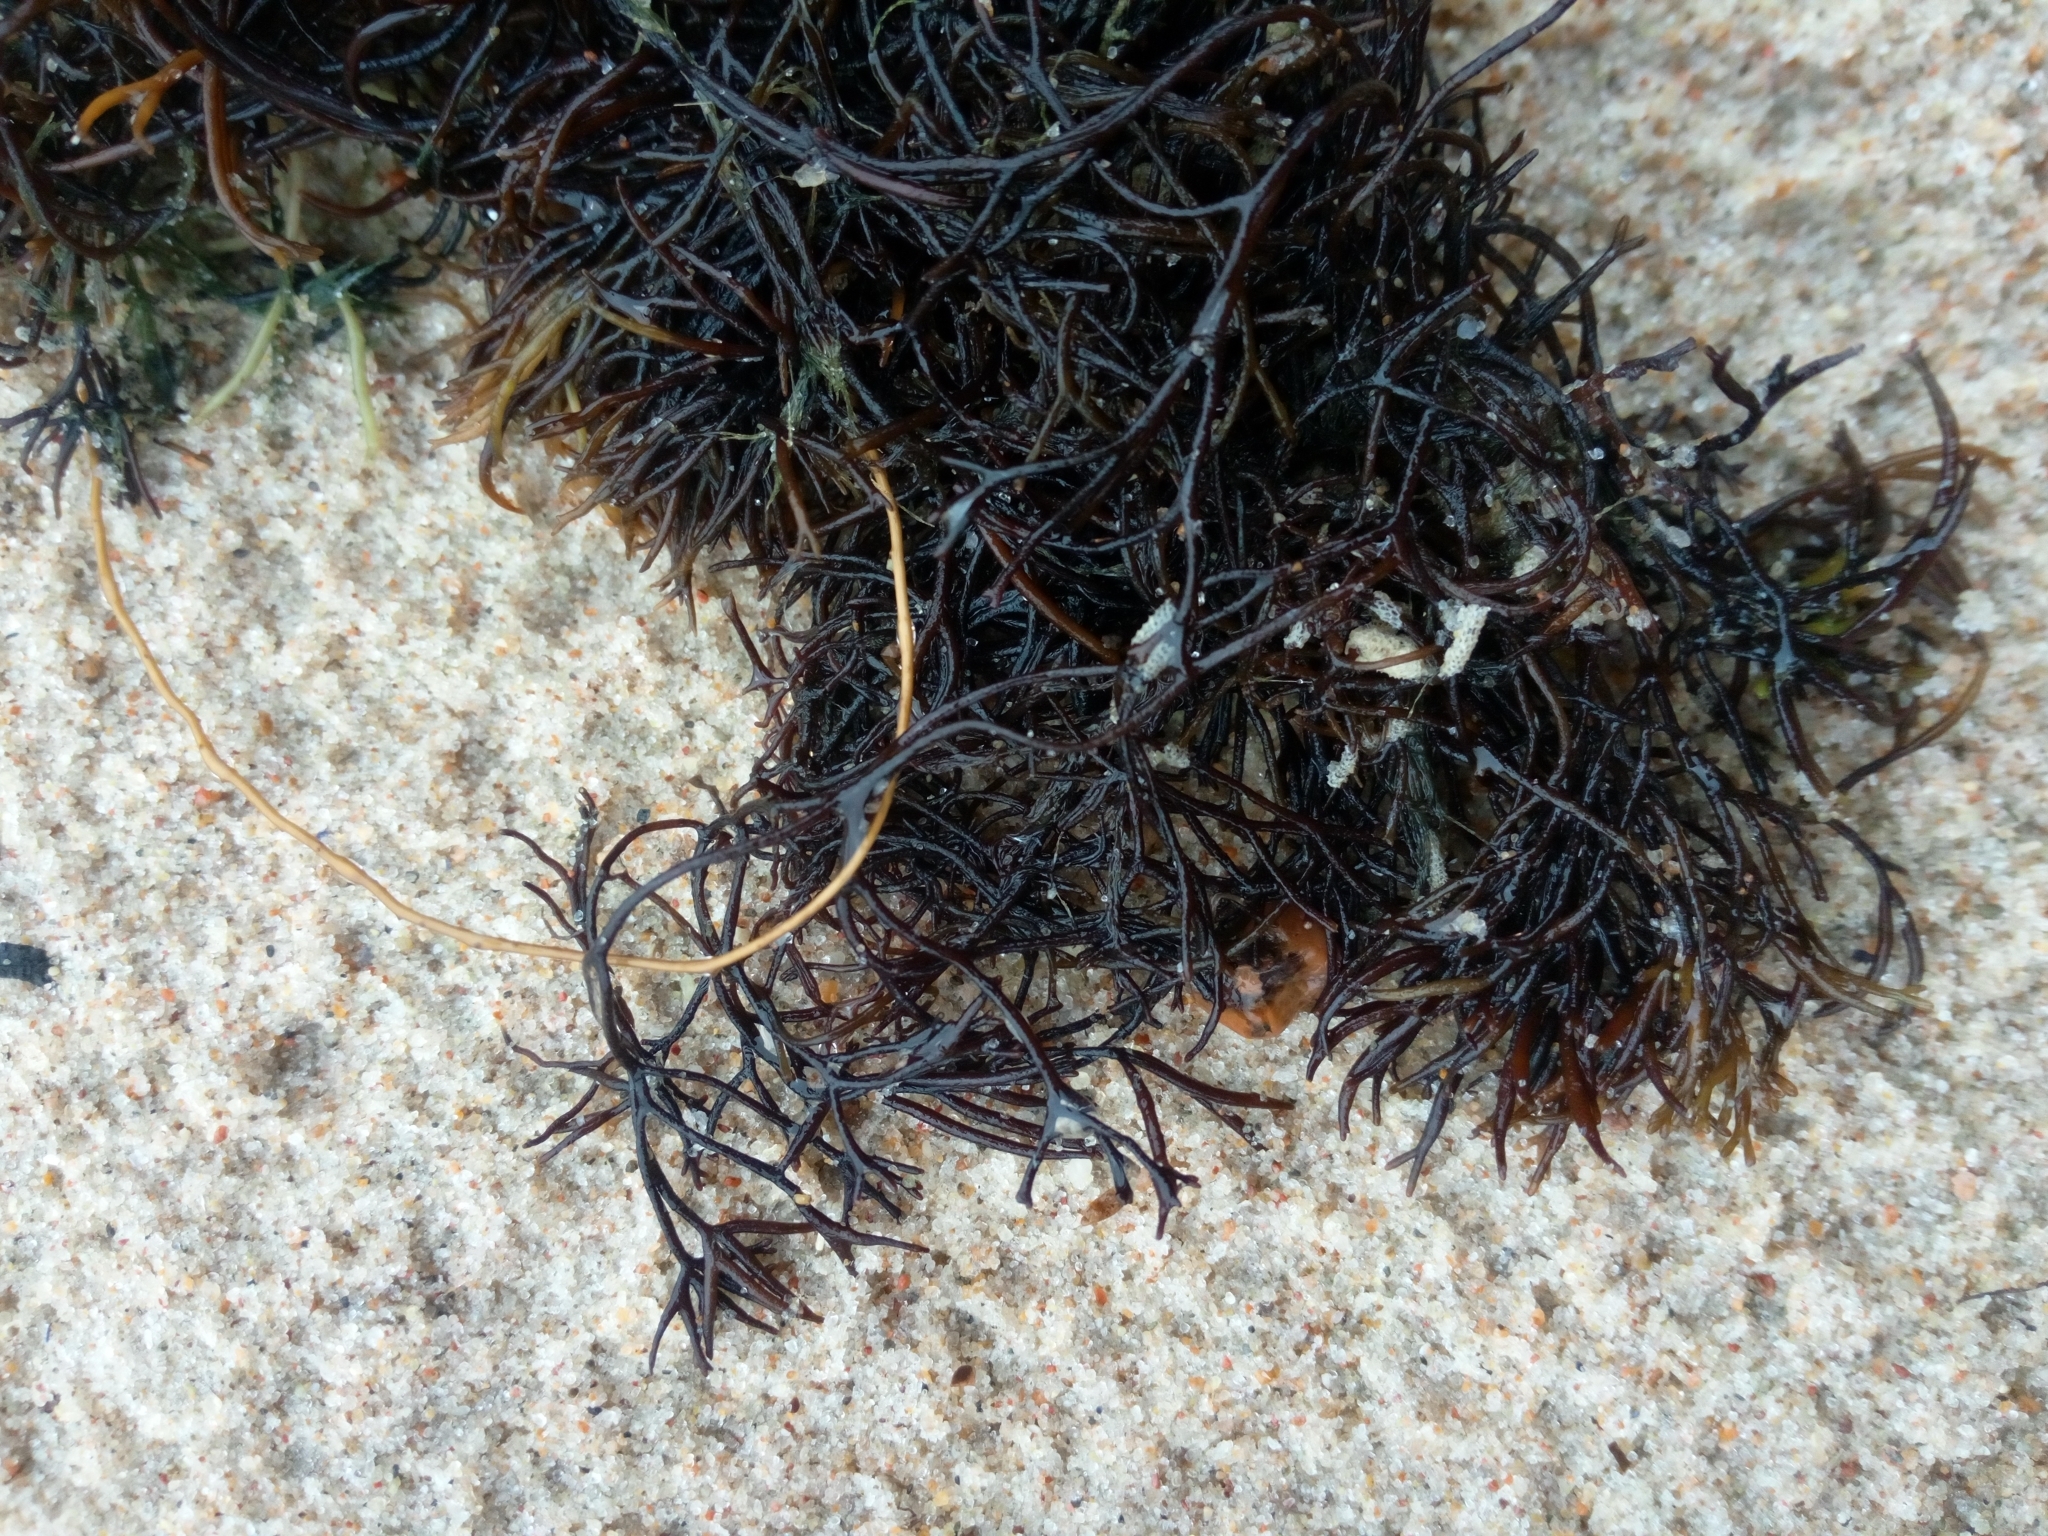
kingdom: Plantae
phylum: Rhodophyta
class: Florideophyceae
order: Gigartinales
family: Furcellariaceae
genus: Furcellaria
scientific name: Furcellaria lumbricalis
